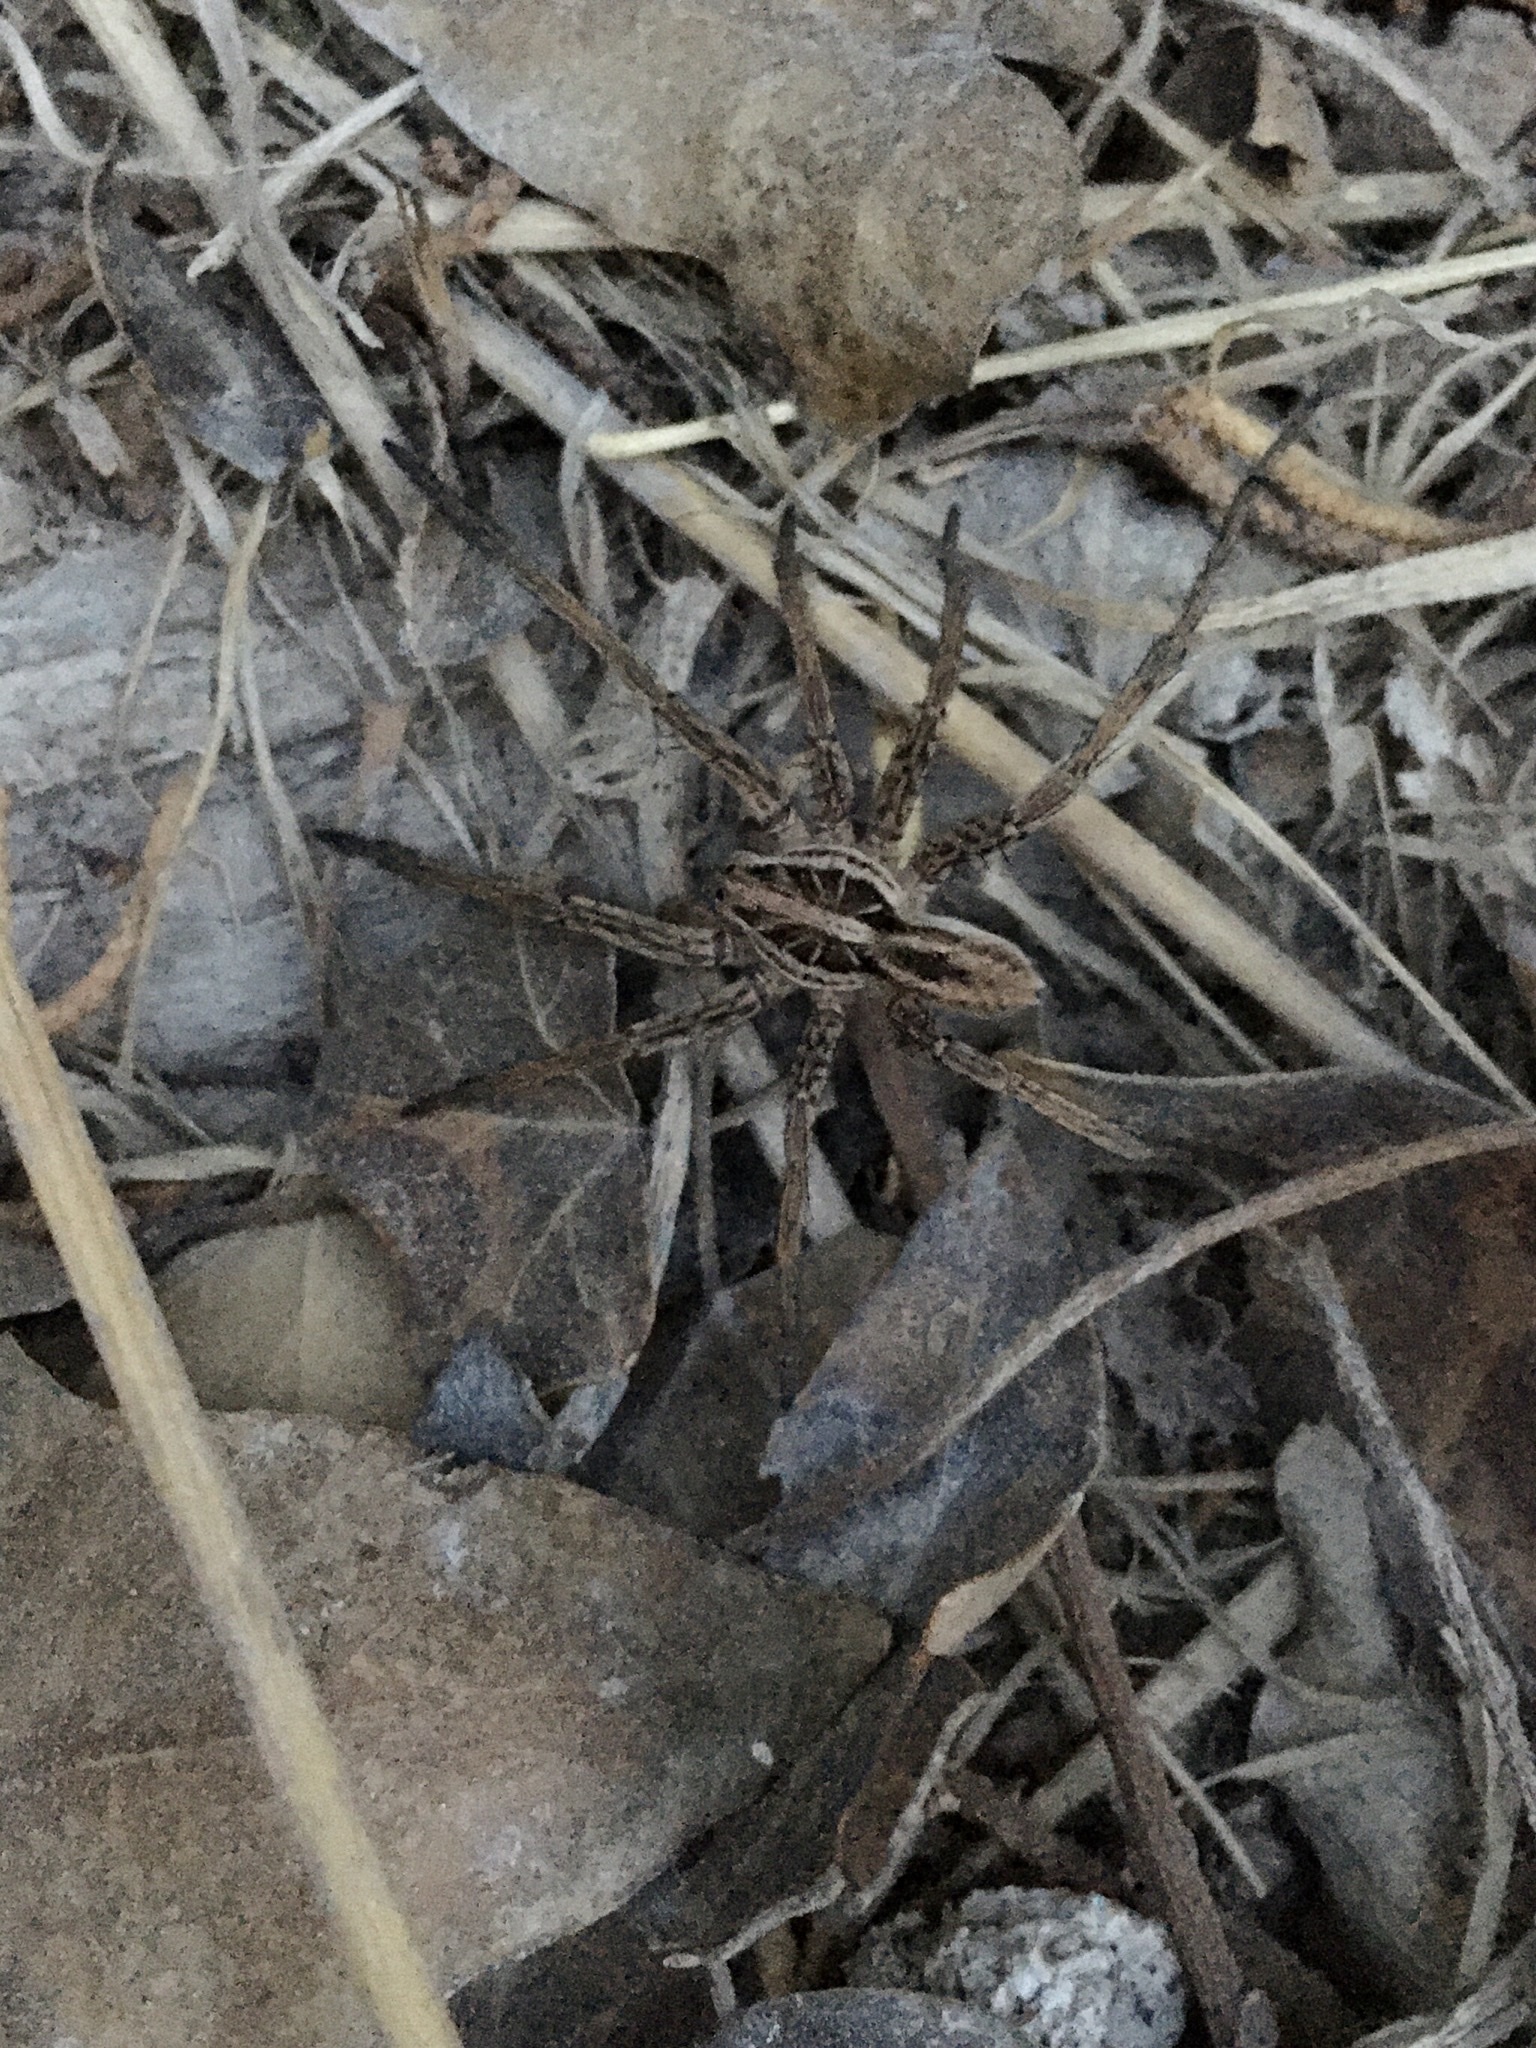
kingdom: Animalia
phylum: Arthropoda
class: Arachnida
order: Araneae
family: Lycosidae
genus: Hogna
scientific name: Hogna radiata
